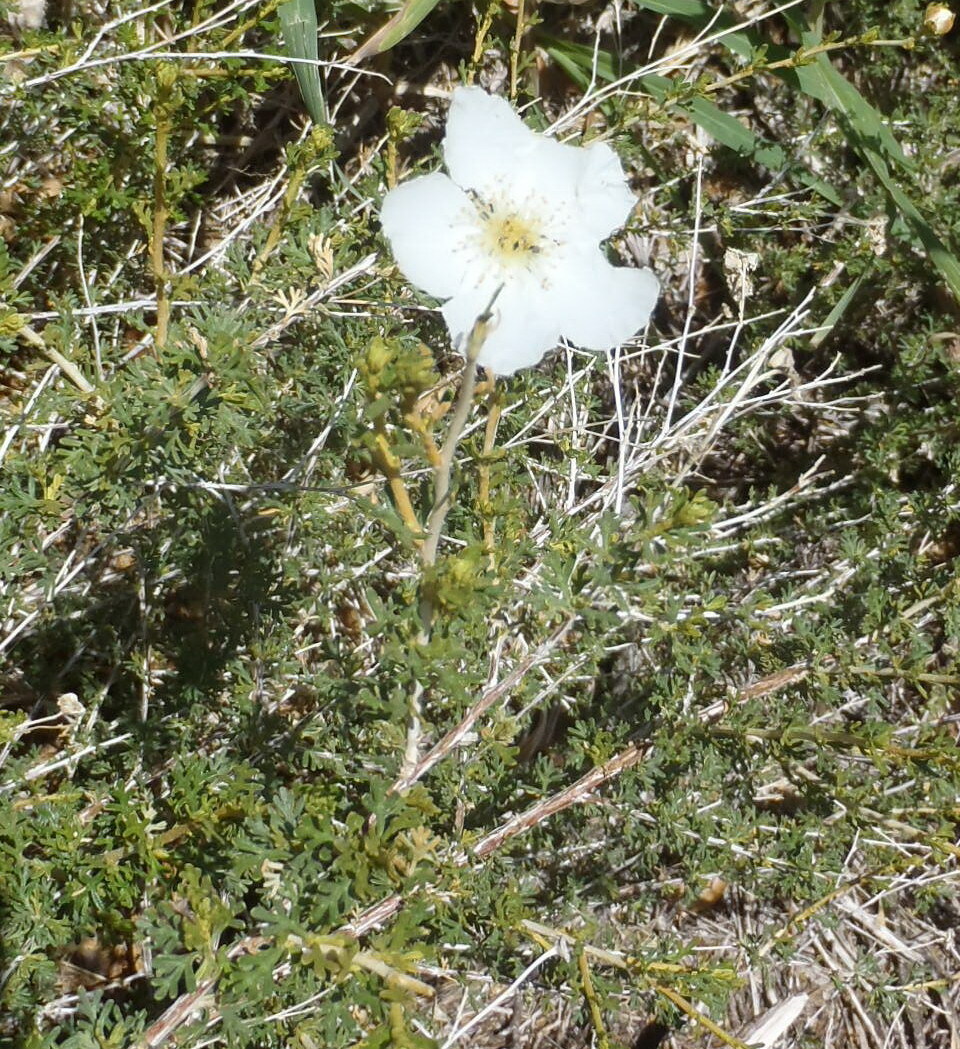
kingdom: Plantae
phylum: Tracheophyta
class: Magnoliopsida
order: Rosales
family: Rosaceae
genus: Fallugia
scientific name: Fallugia paradoxa
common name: Apache-plume
